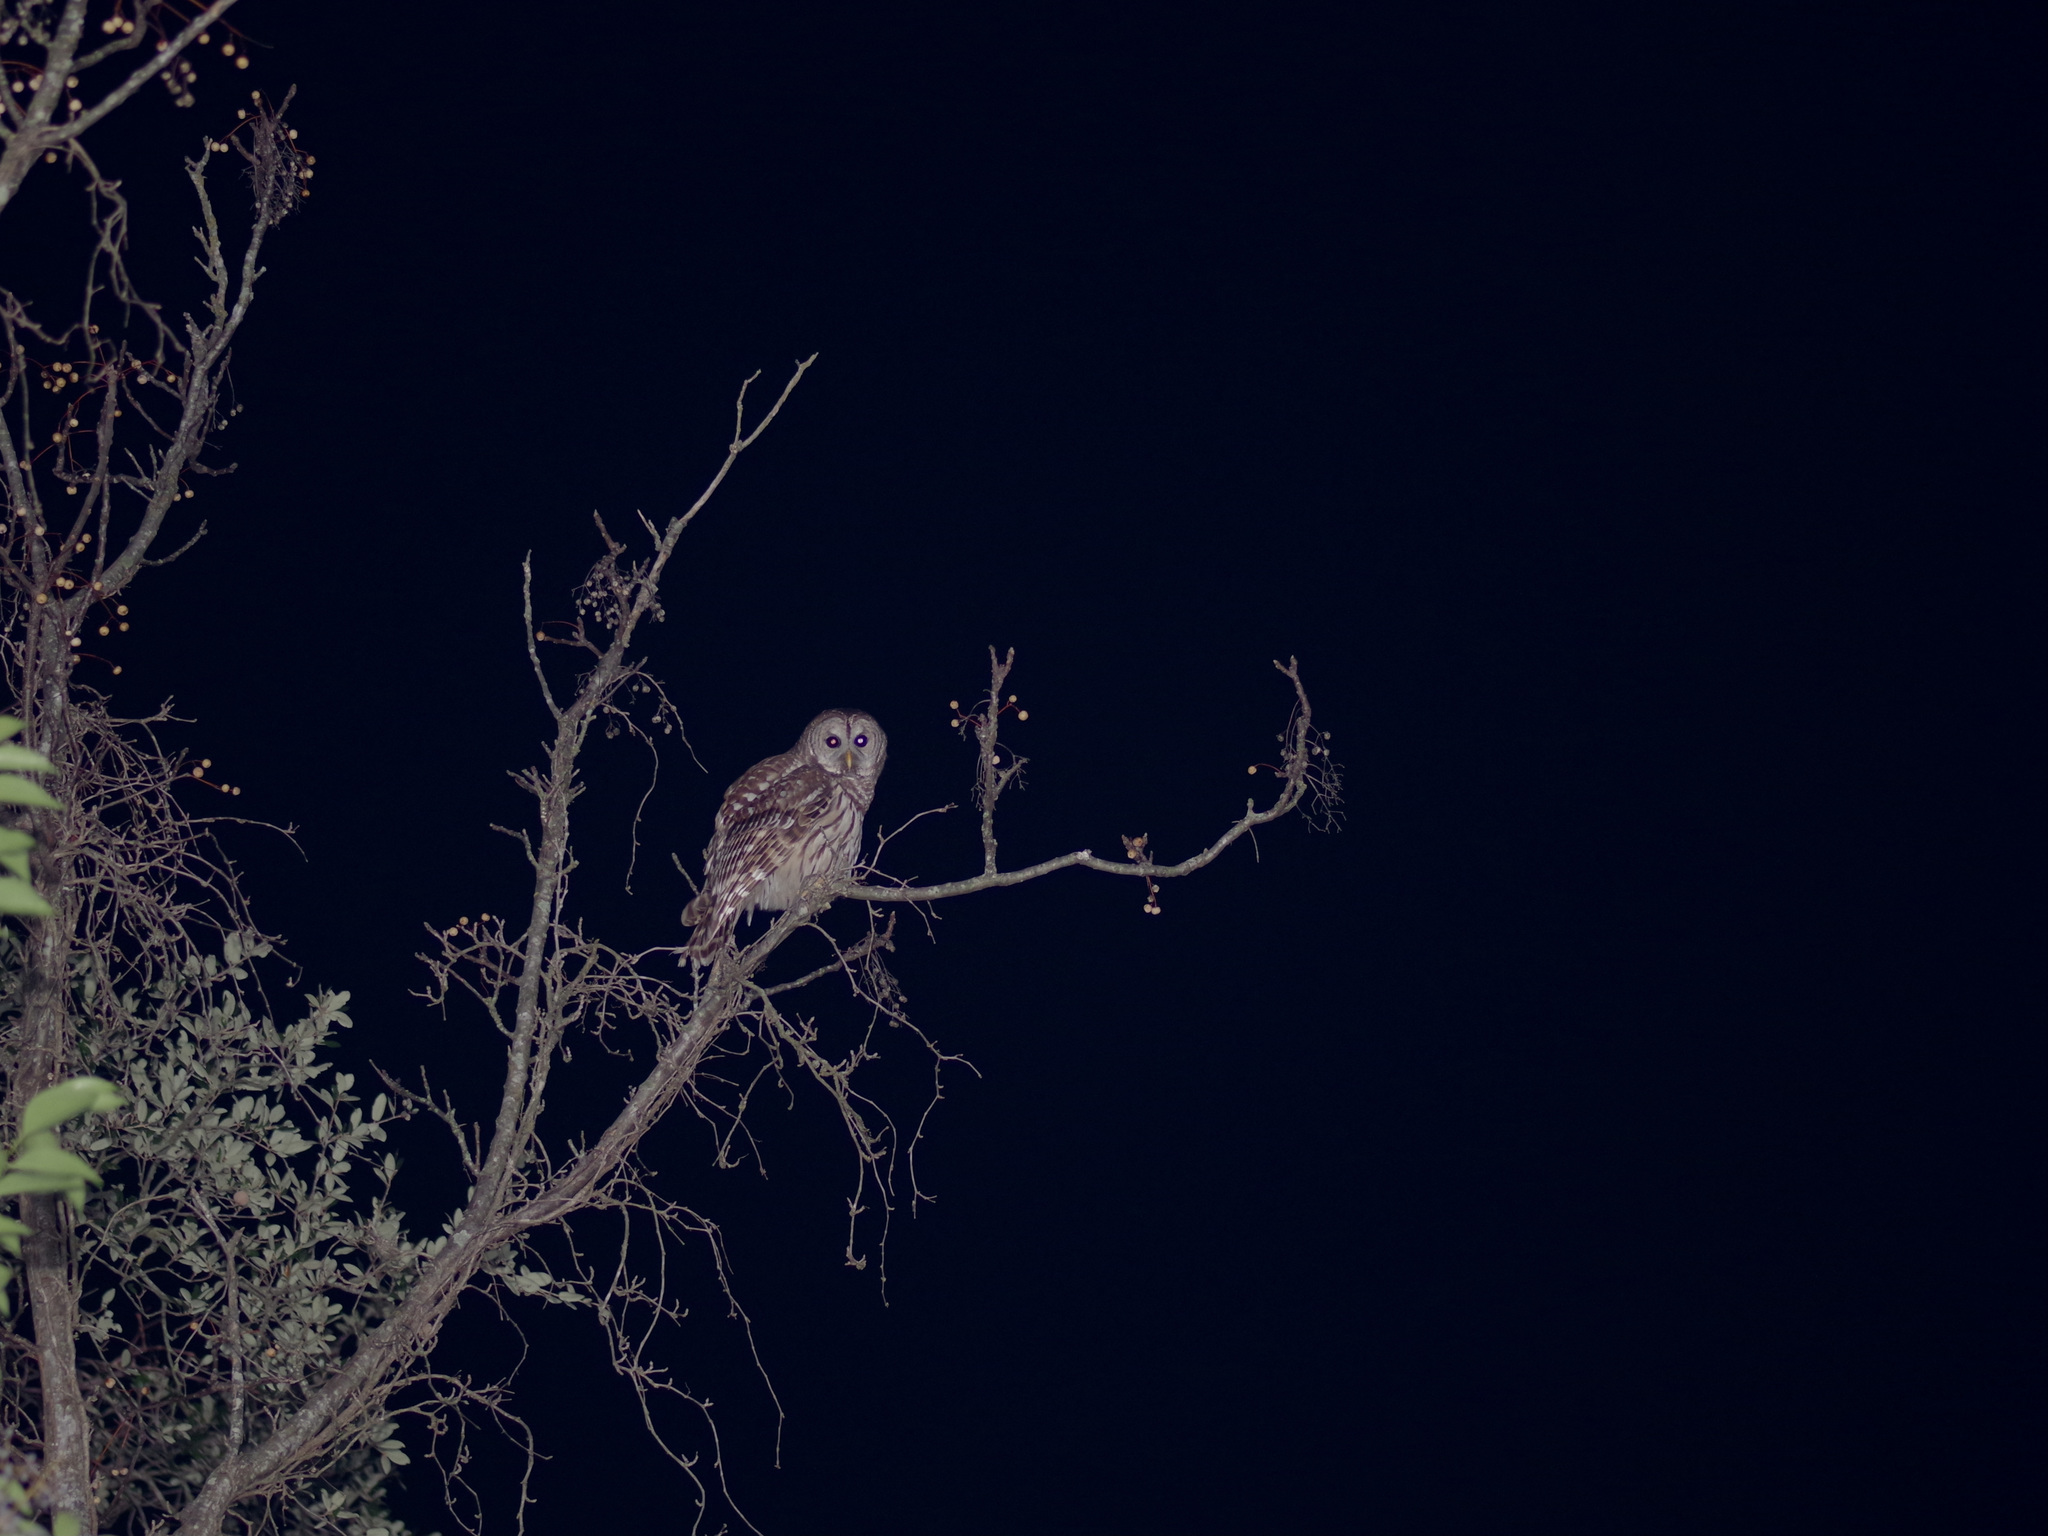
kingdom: Animalia
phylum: Chordata
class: Aves
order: Strigiformes
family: Strigidae
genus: Strix
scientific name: Strix varia
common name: Barred owl
